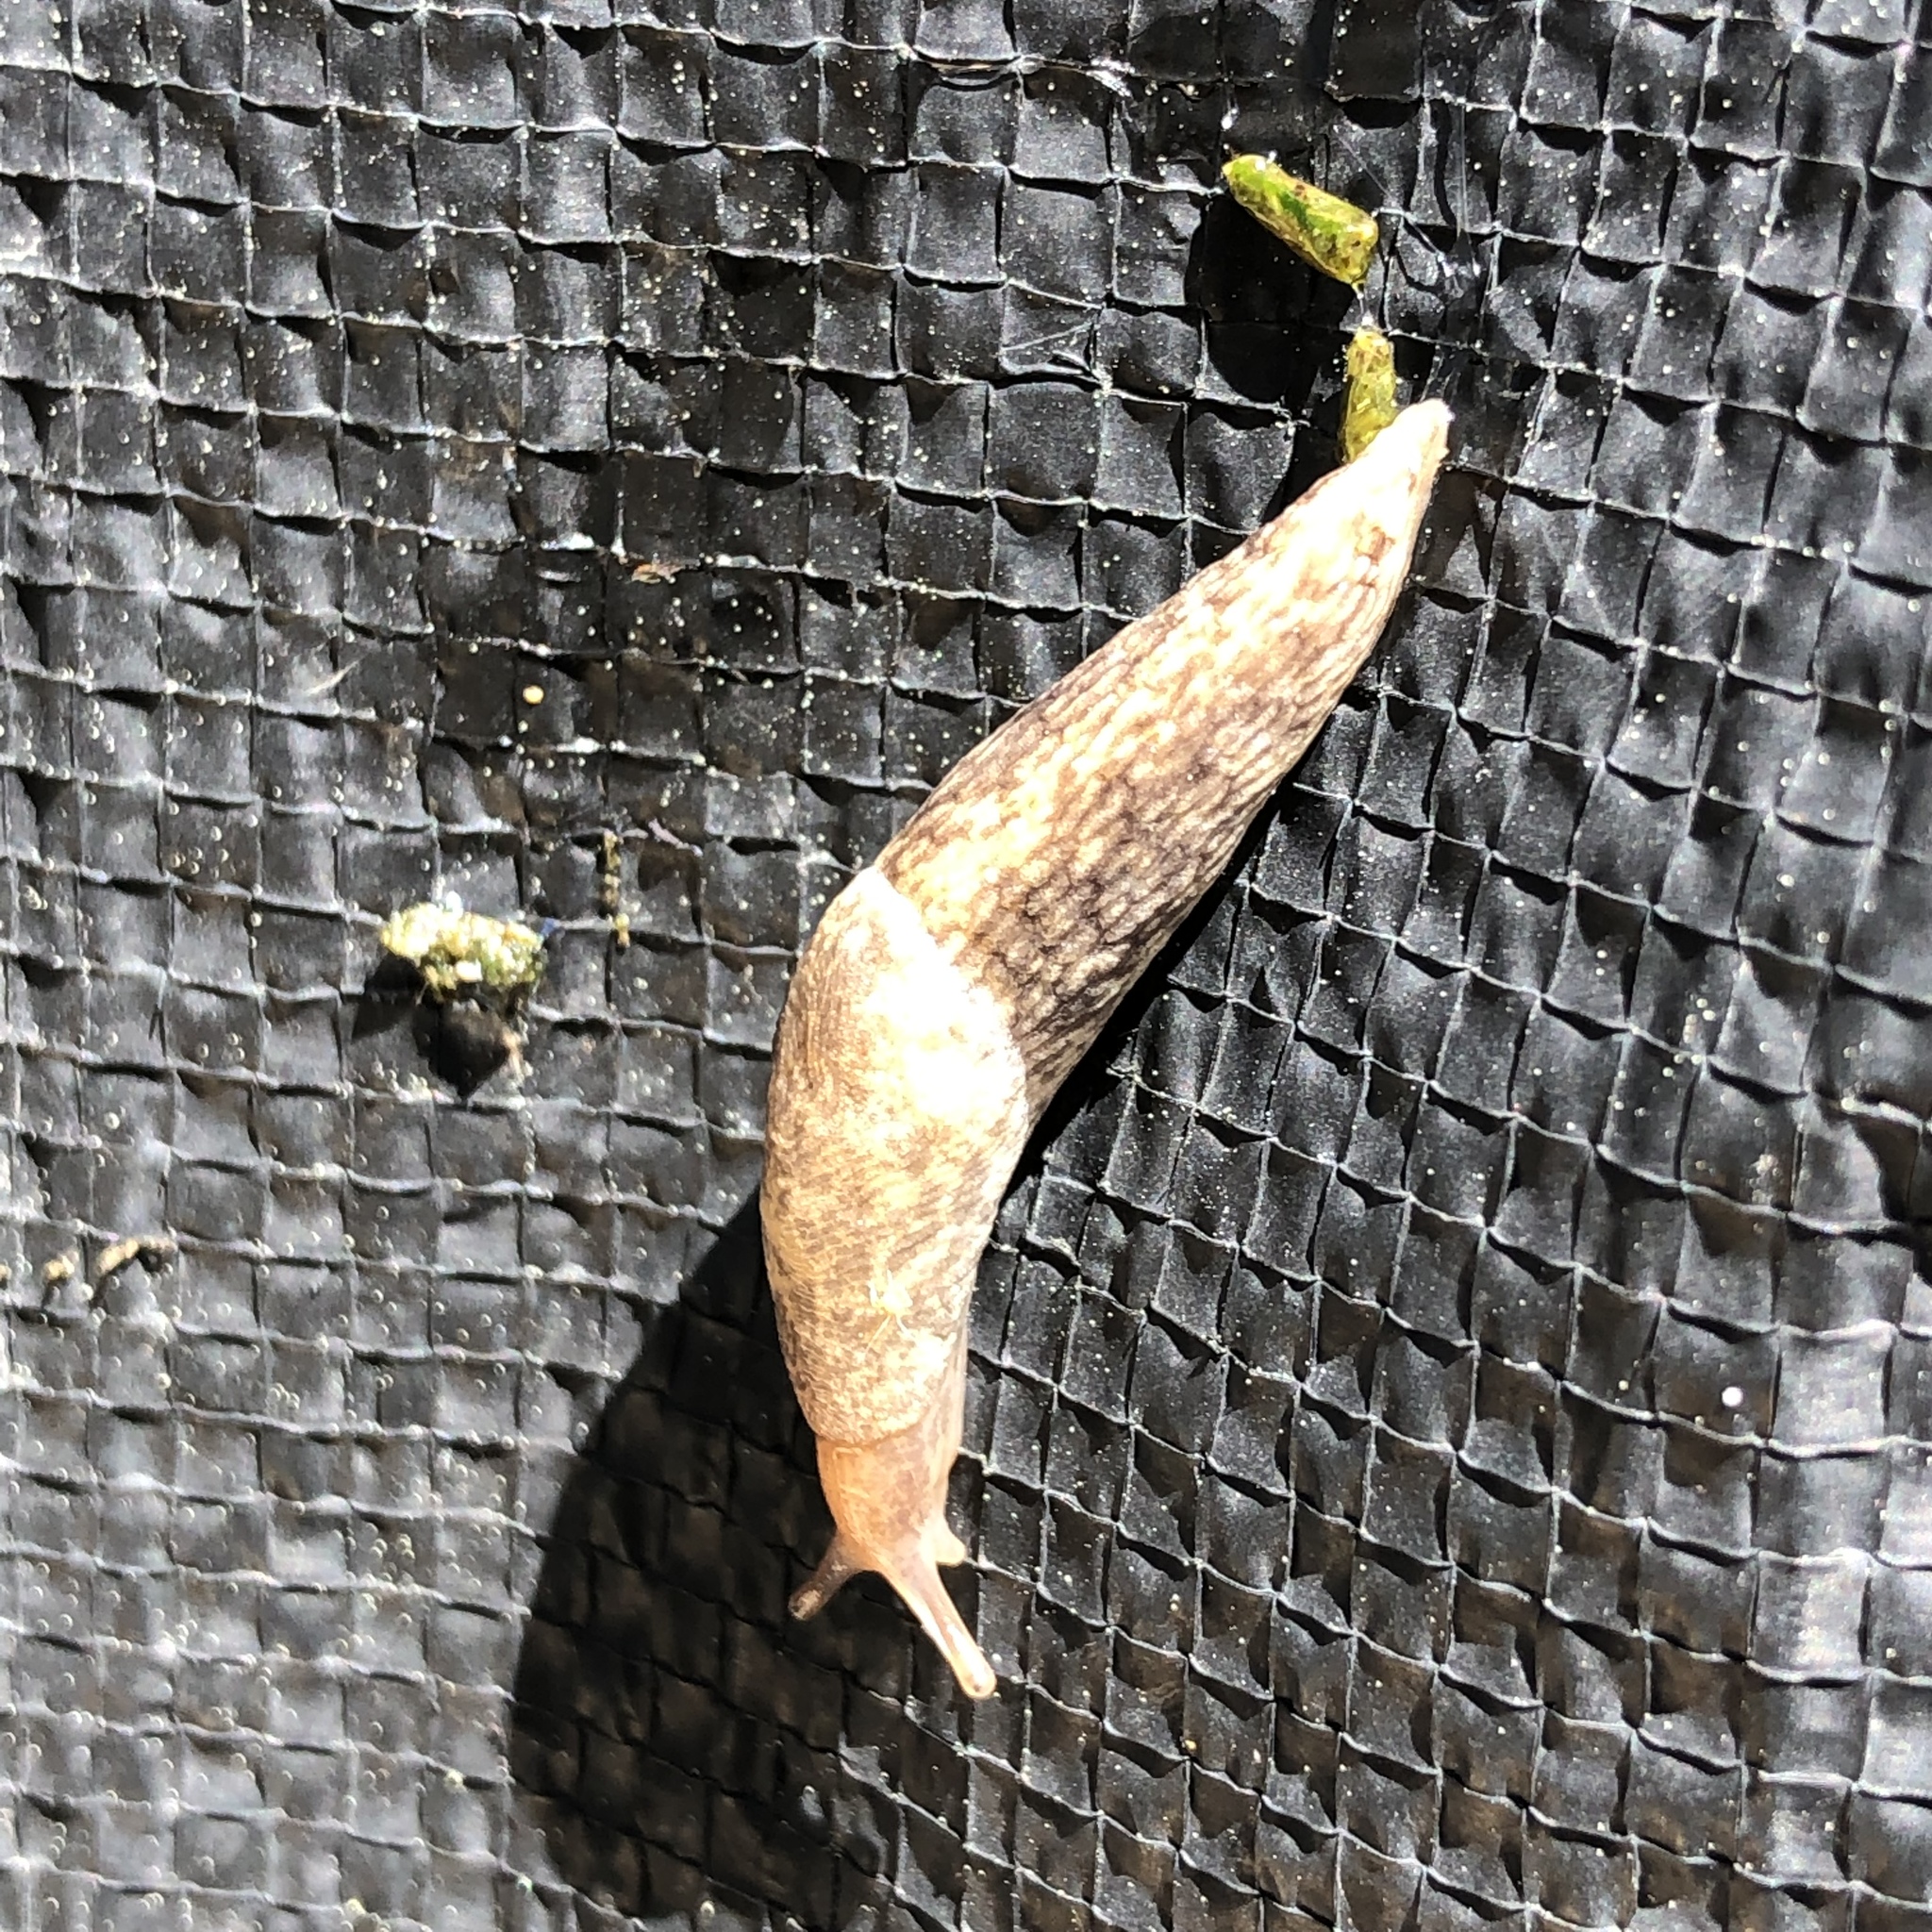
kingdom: Animalia
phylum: Mollusca
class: Gastropoda
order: Stylommatophora
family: Agriolimacidae
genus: Deroceras
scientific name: Deroceras reticulatum
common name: Gray field slug
